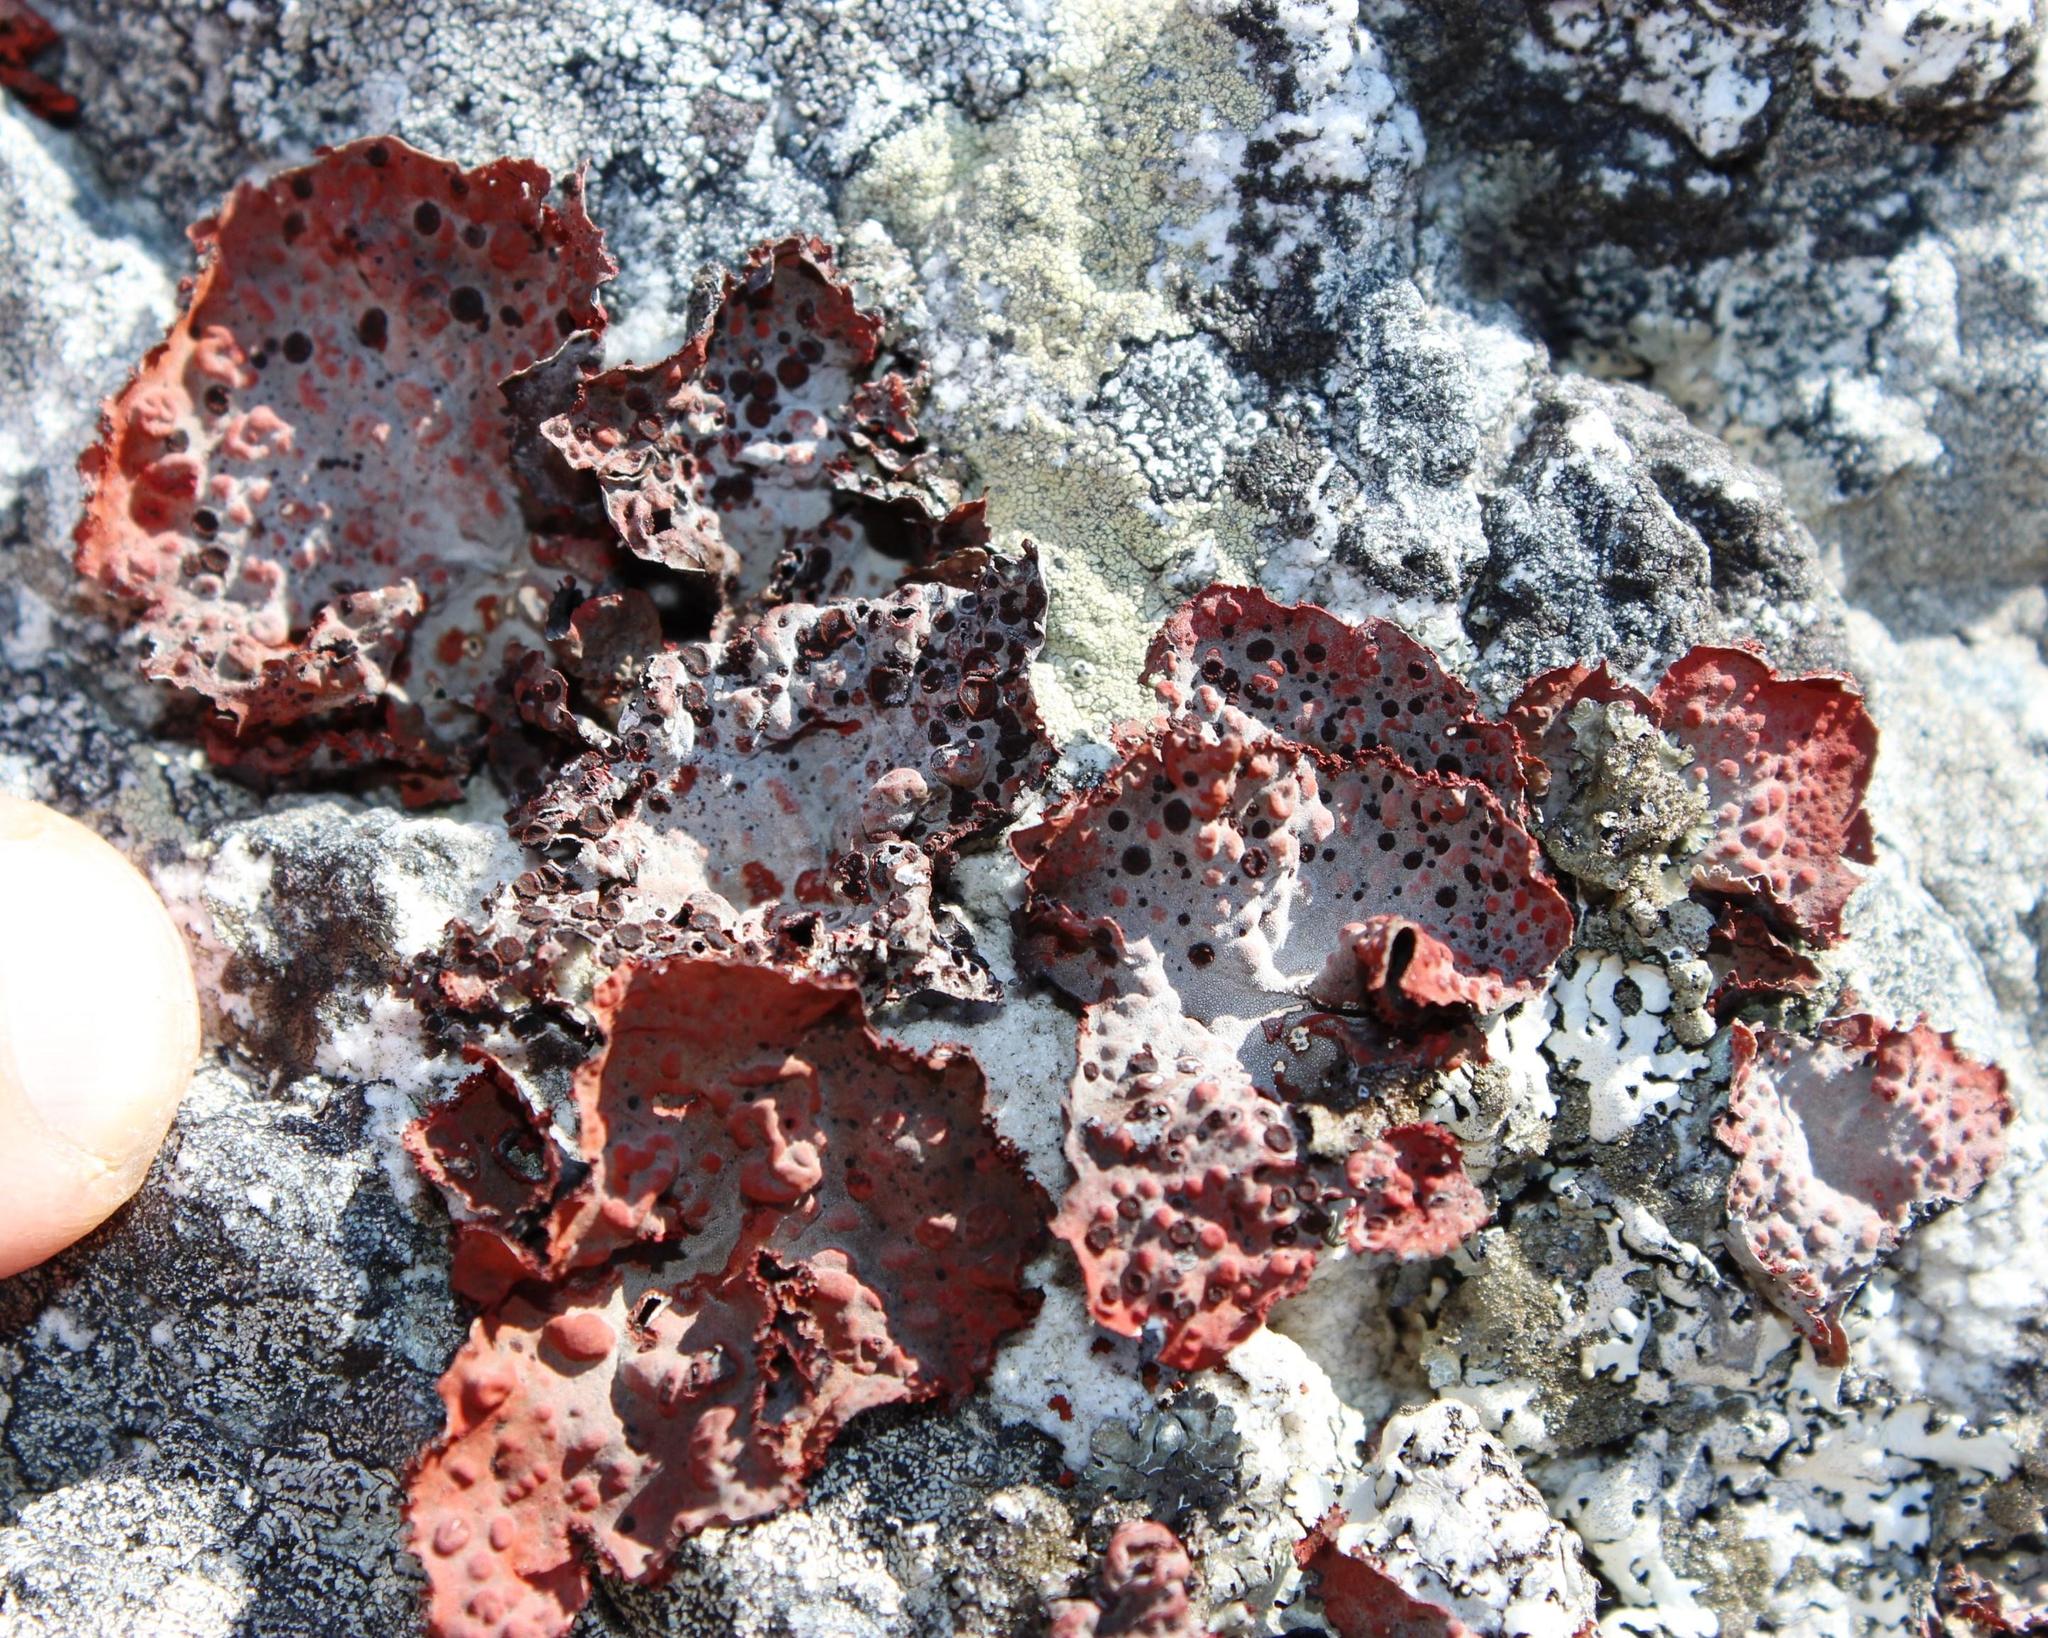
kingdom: Fungi
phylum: Ascomycota
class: Lecanoromycetes
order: Umbilicariales
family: Umbilicariaceae
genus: Lasallia
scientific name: Lasallia rubiginosa
